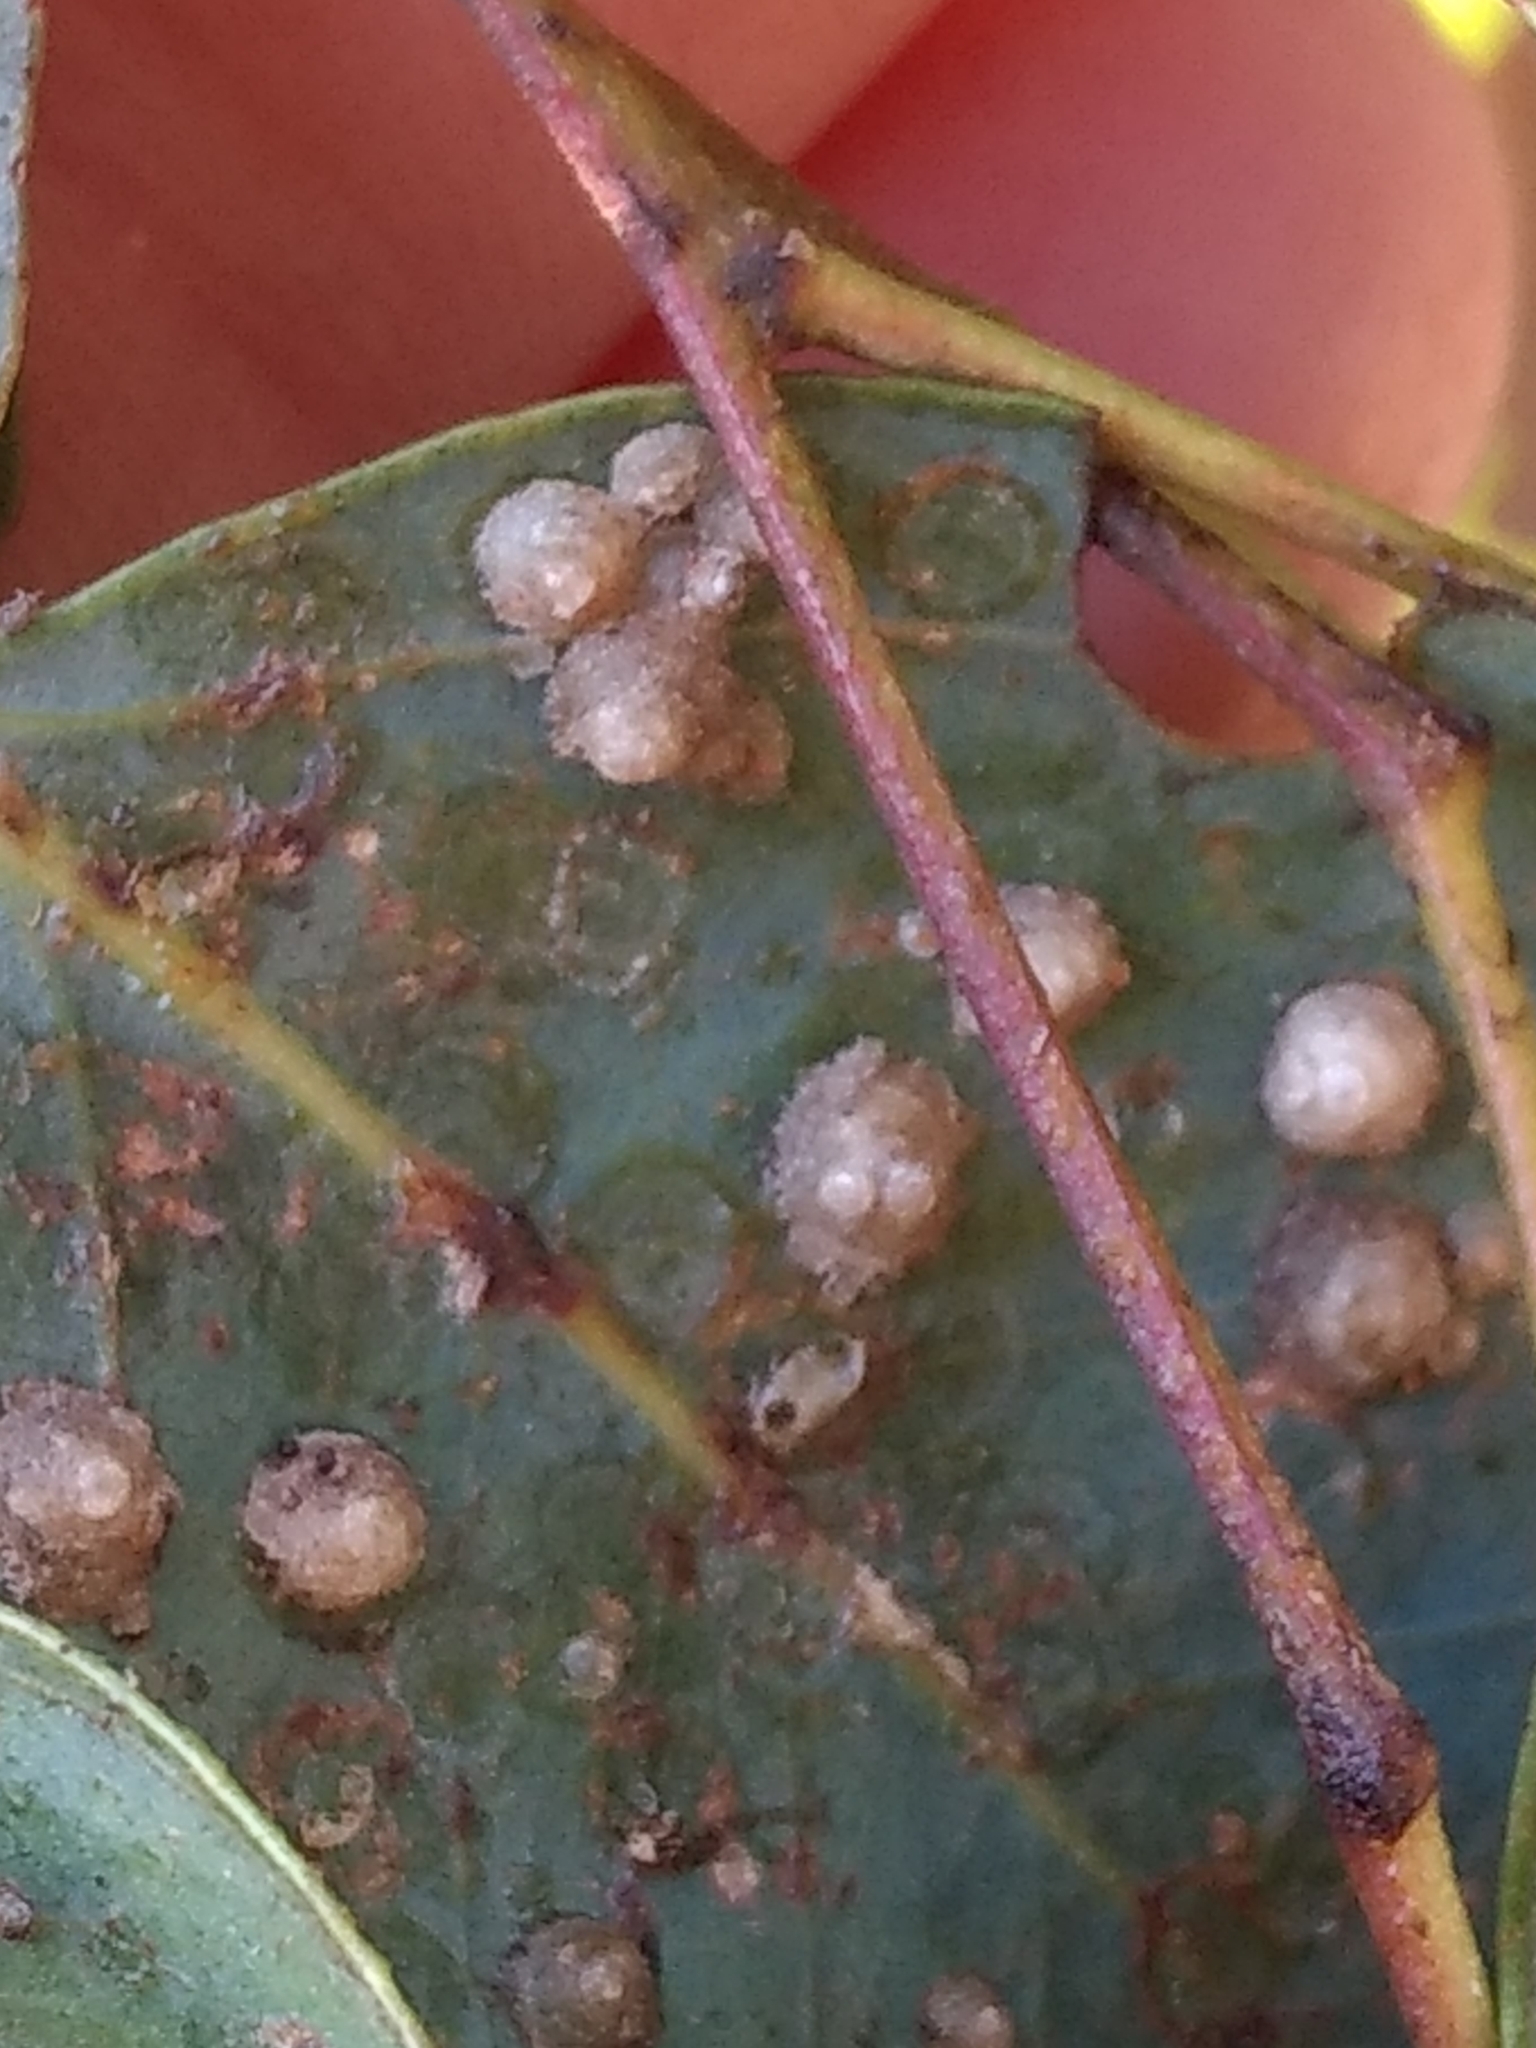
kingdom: Animalia
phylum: Arthropoda
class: Insecta
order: Hemiptera
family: Aphalaridae
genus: Glycaspis
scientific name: Glycaspis brimblecombei
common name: Red gum lerp psyllid
